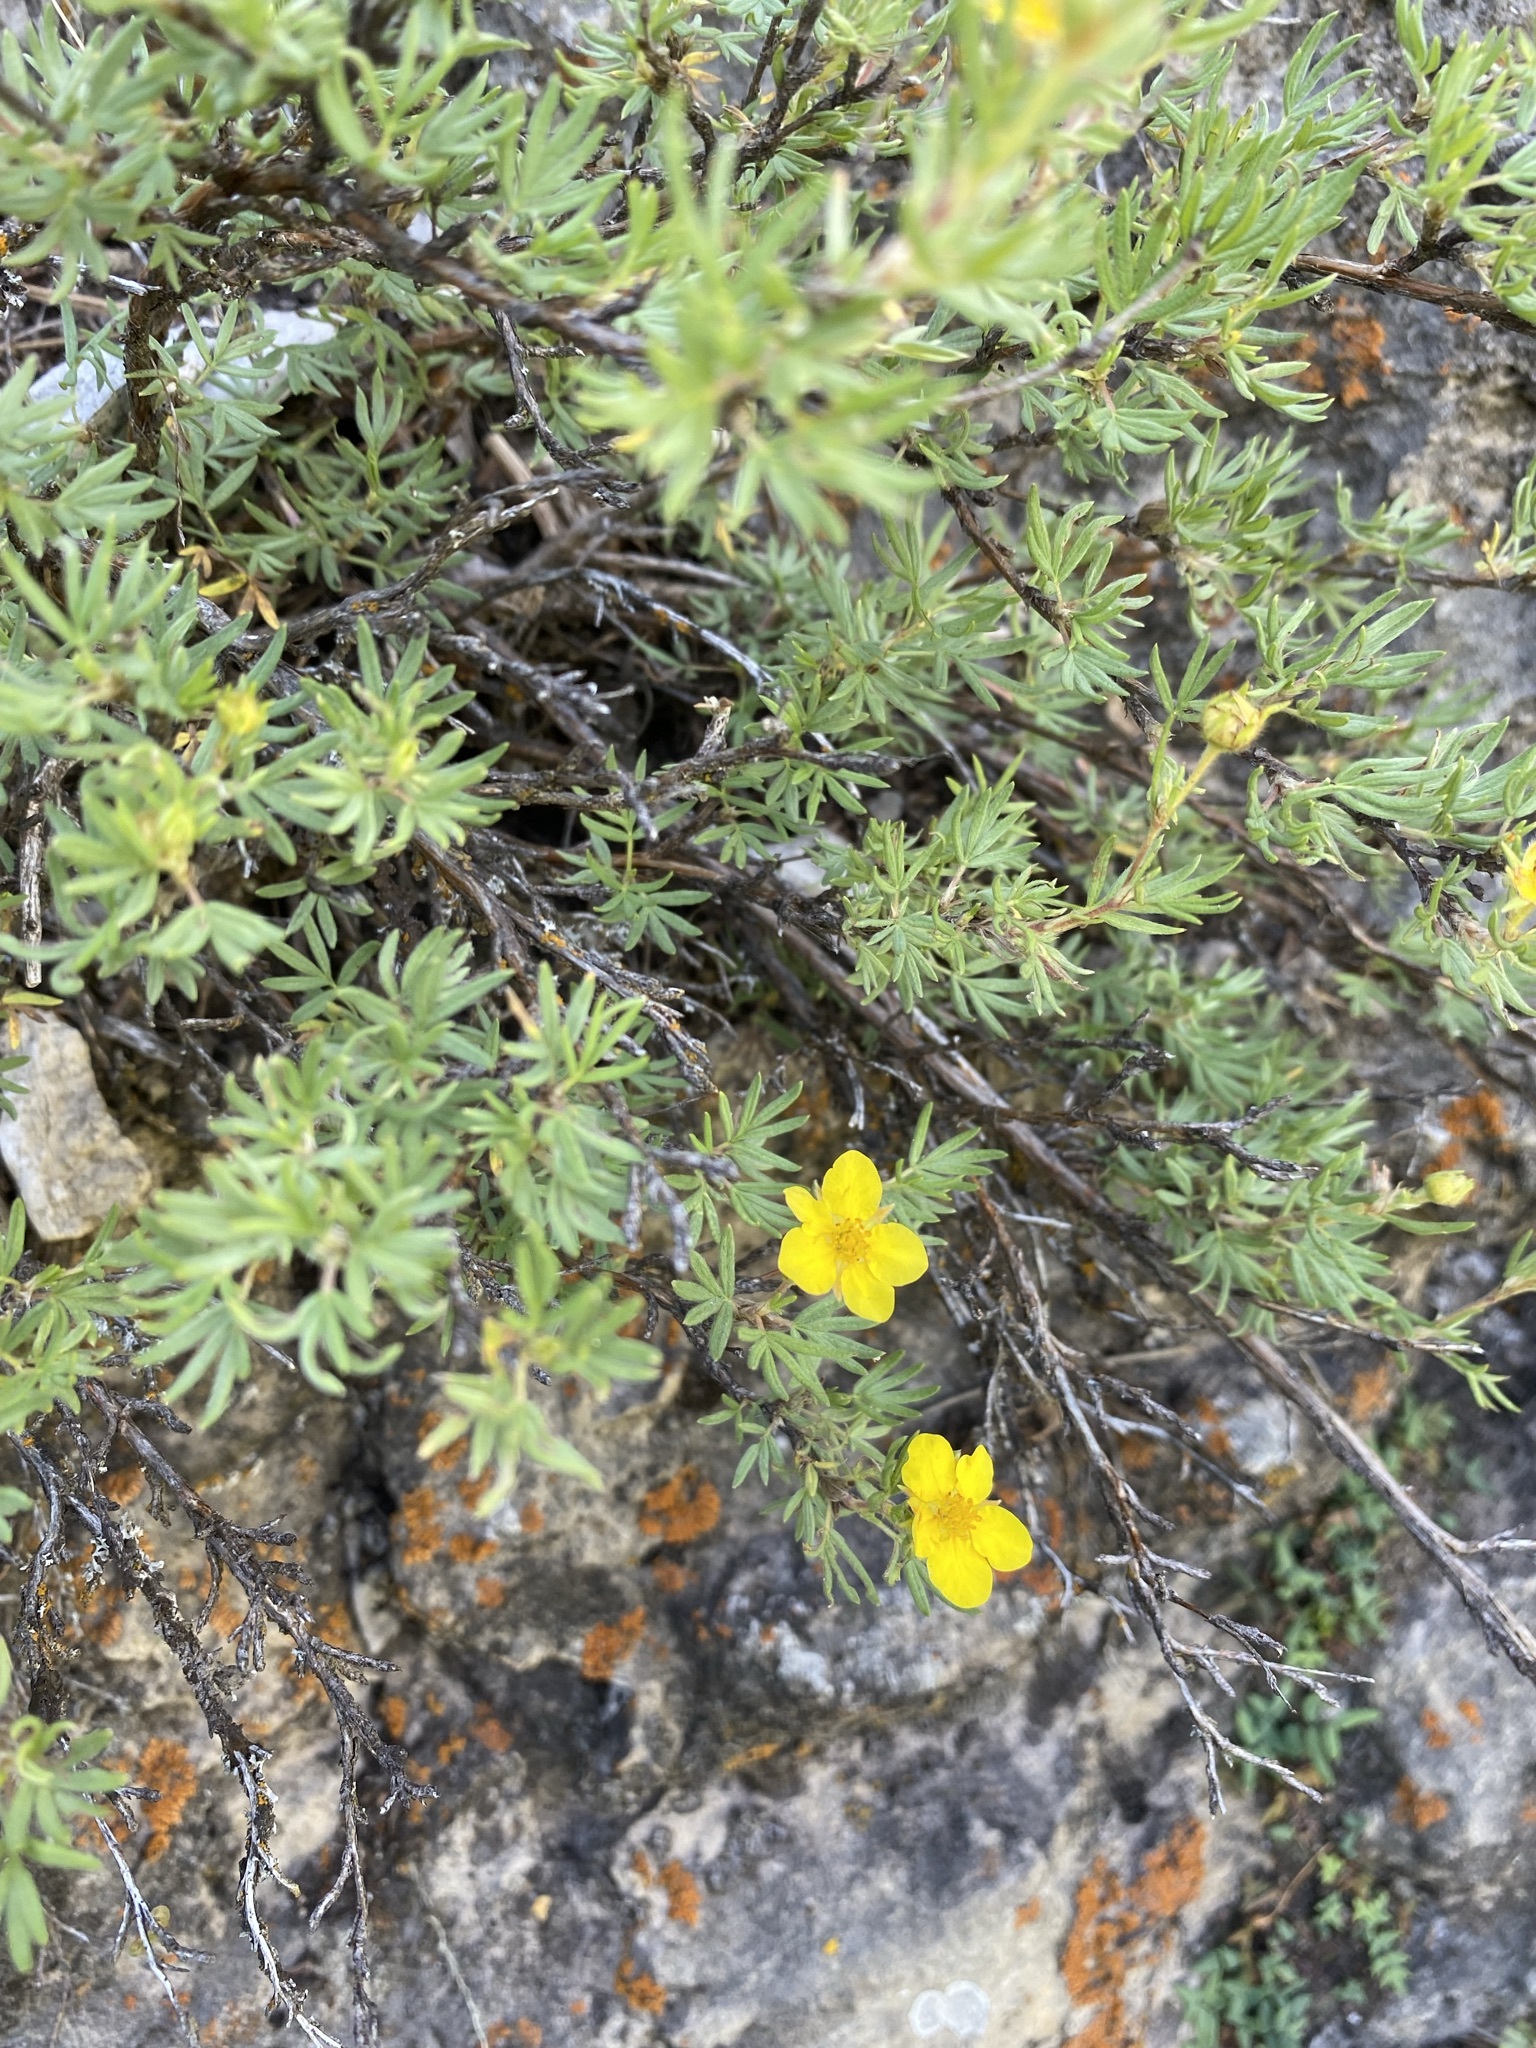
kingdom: Plantae
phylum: Tracheophyta
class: Magnoliopsida
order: Rosales
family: Rosaceae
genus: Dasiphora
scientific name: Dasiphora fruticosa
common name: Shrubby cinquefoil
